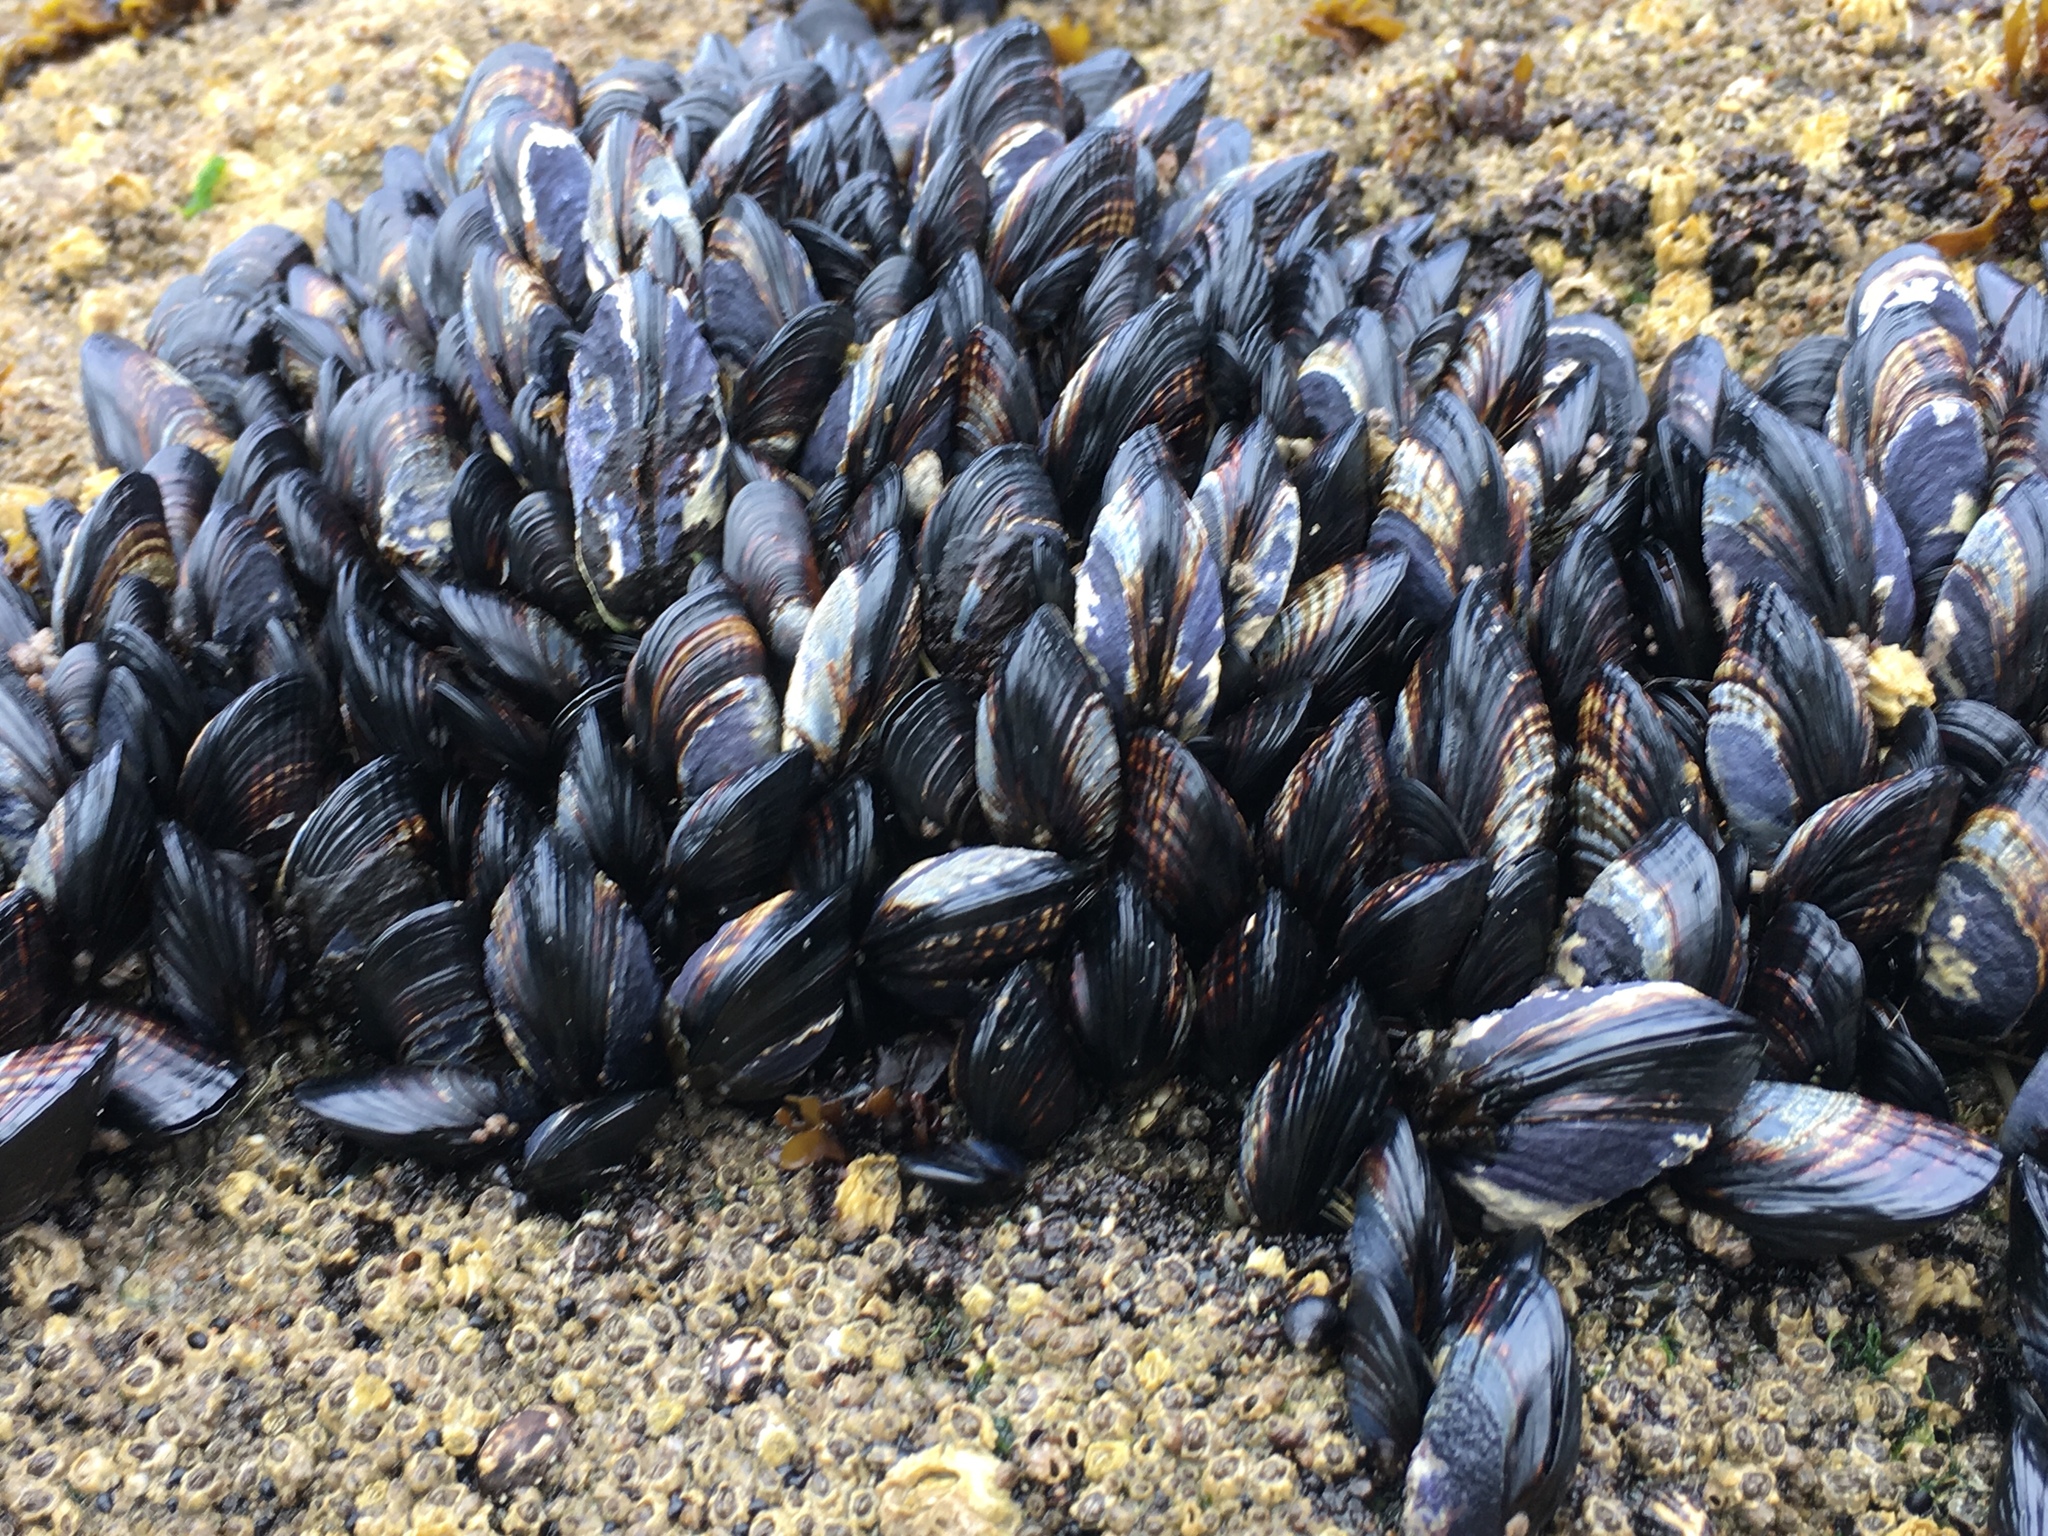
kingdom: Animalia
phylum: Mollusca
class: Bivalvia
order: Mytilida
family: Mytilidae
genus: Mytilus
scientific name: Mytilus californianus
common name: California mussel
